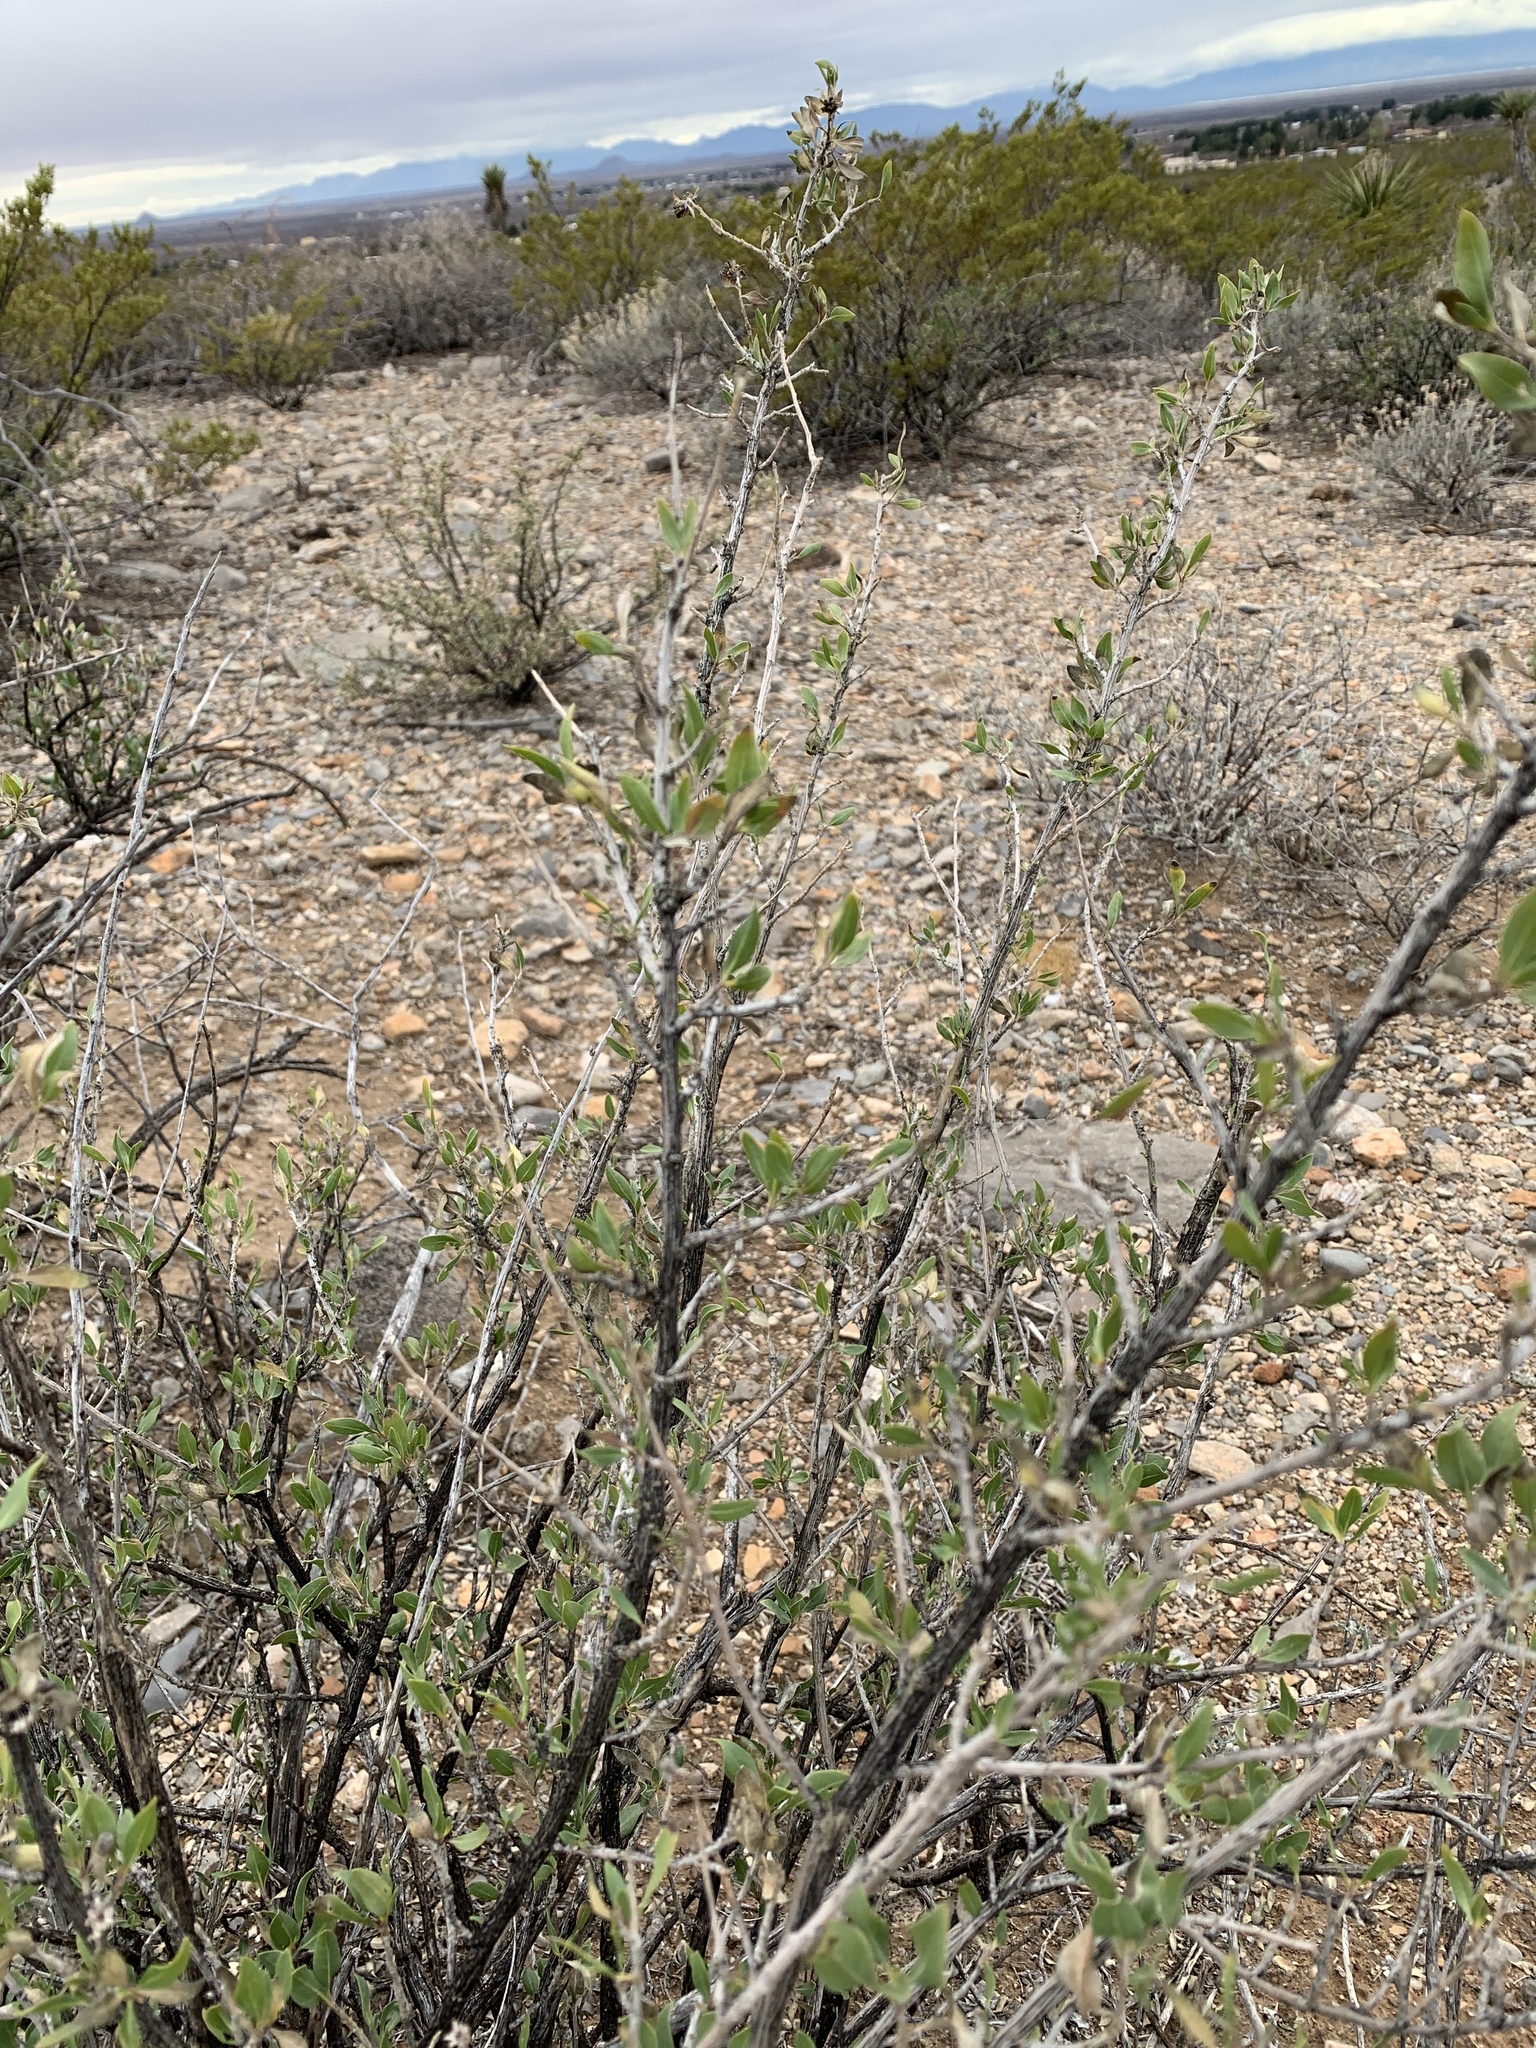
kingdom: Plantae
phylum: Tracheophyta
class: Magnoliopsida
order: Asterales
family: Asteraceae
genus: Flourensia
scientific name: Flourensia cernua
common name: Varnishbush
